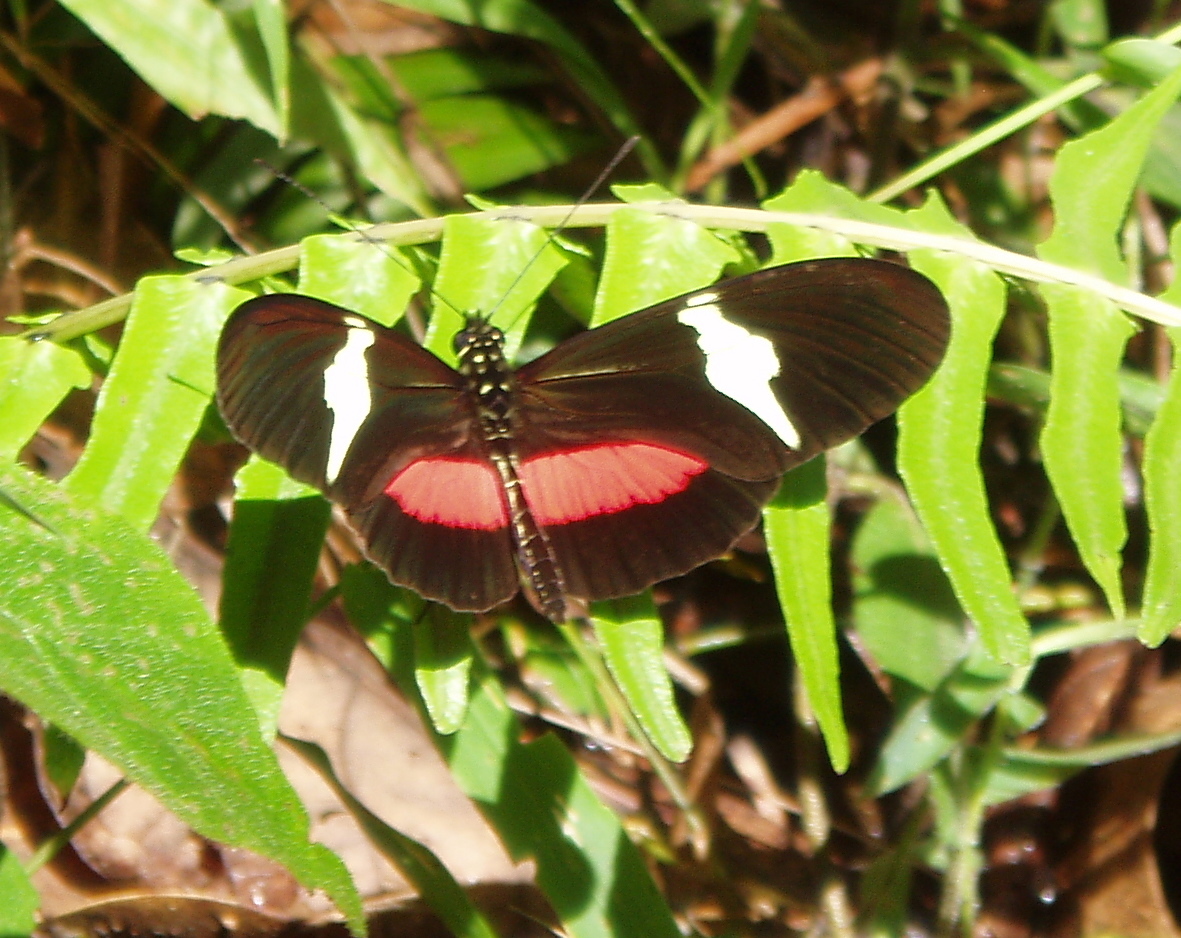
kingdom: Animalia
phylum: Arthropoda
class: Insecta
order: Lepidoptera
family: Nymphalidae
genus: Heliconius
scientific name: Heliconius clysonymus
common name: Clysonymus longwing
